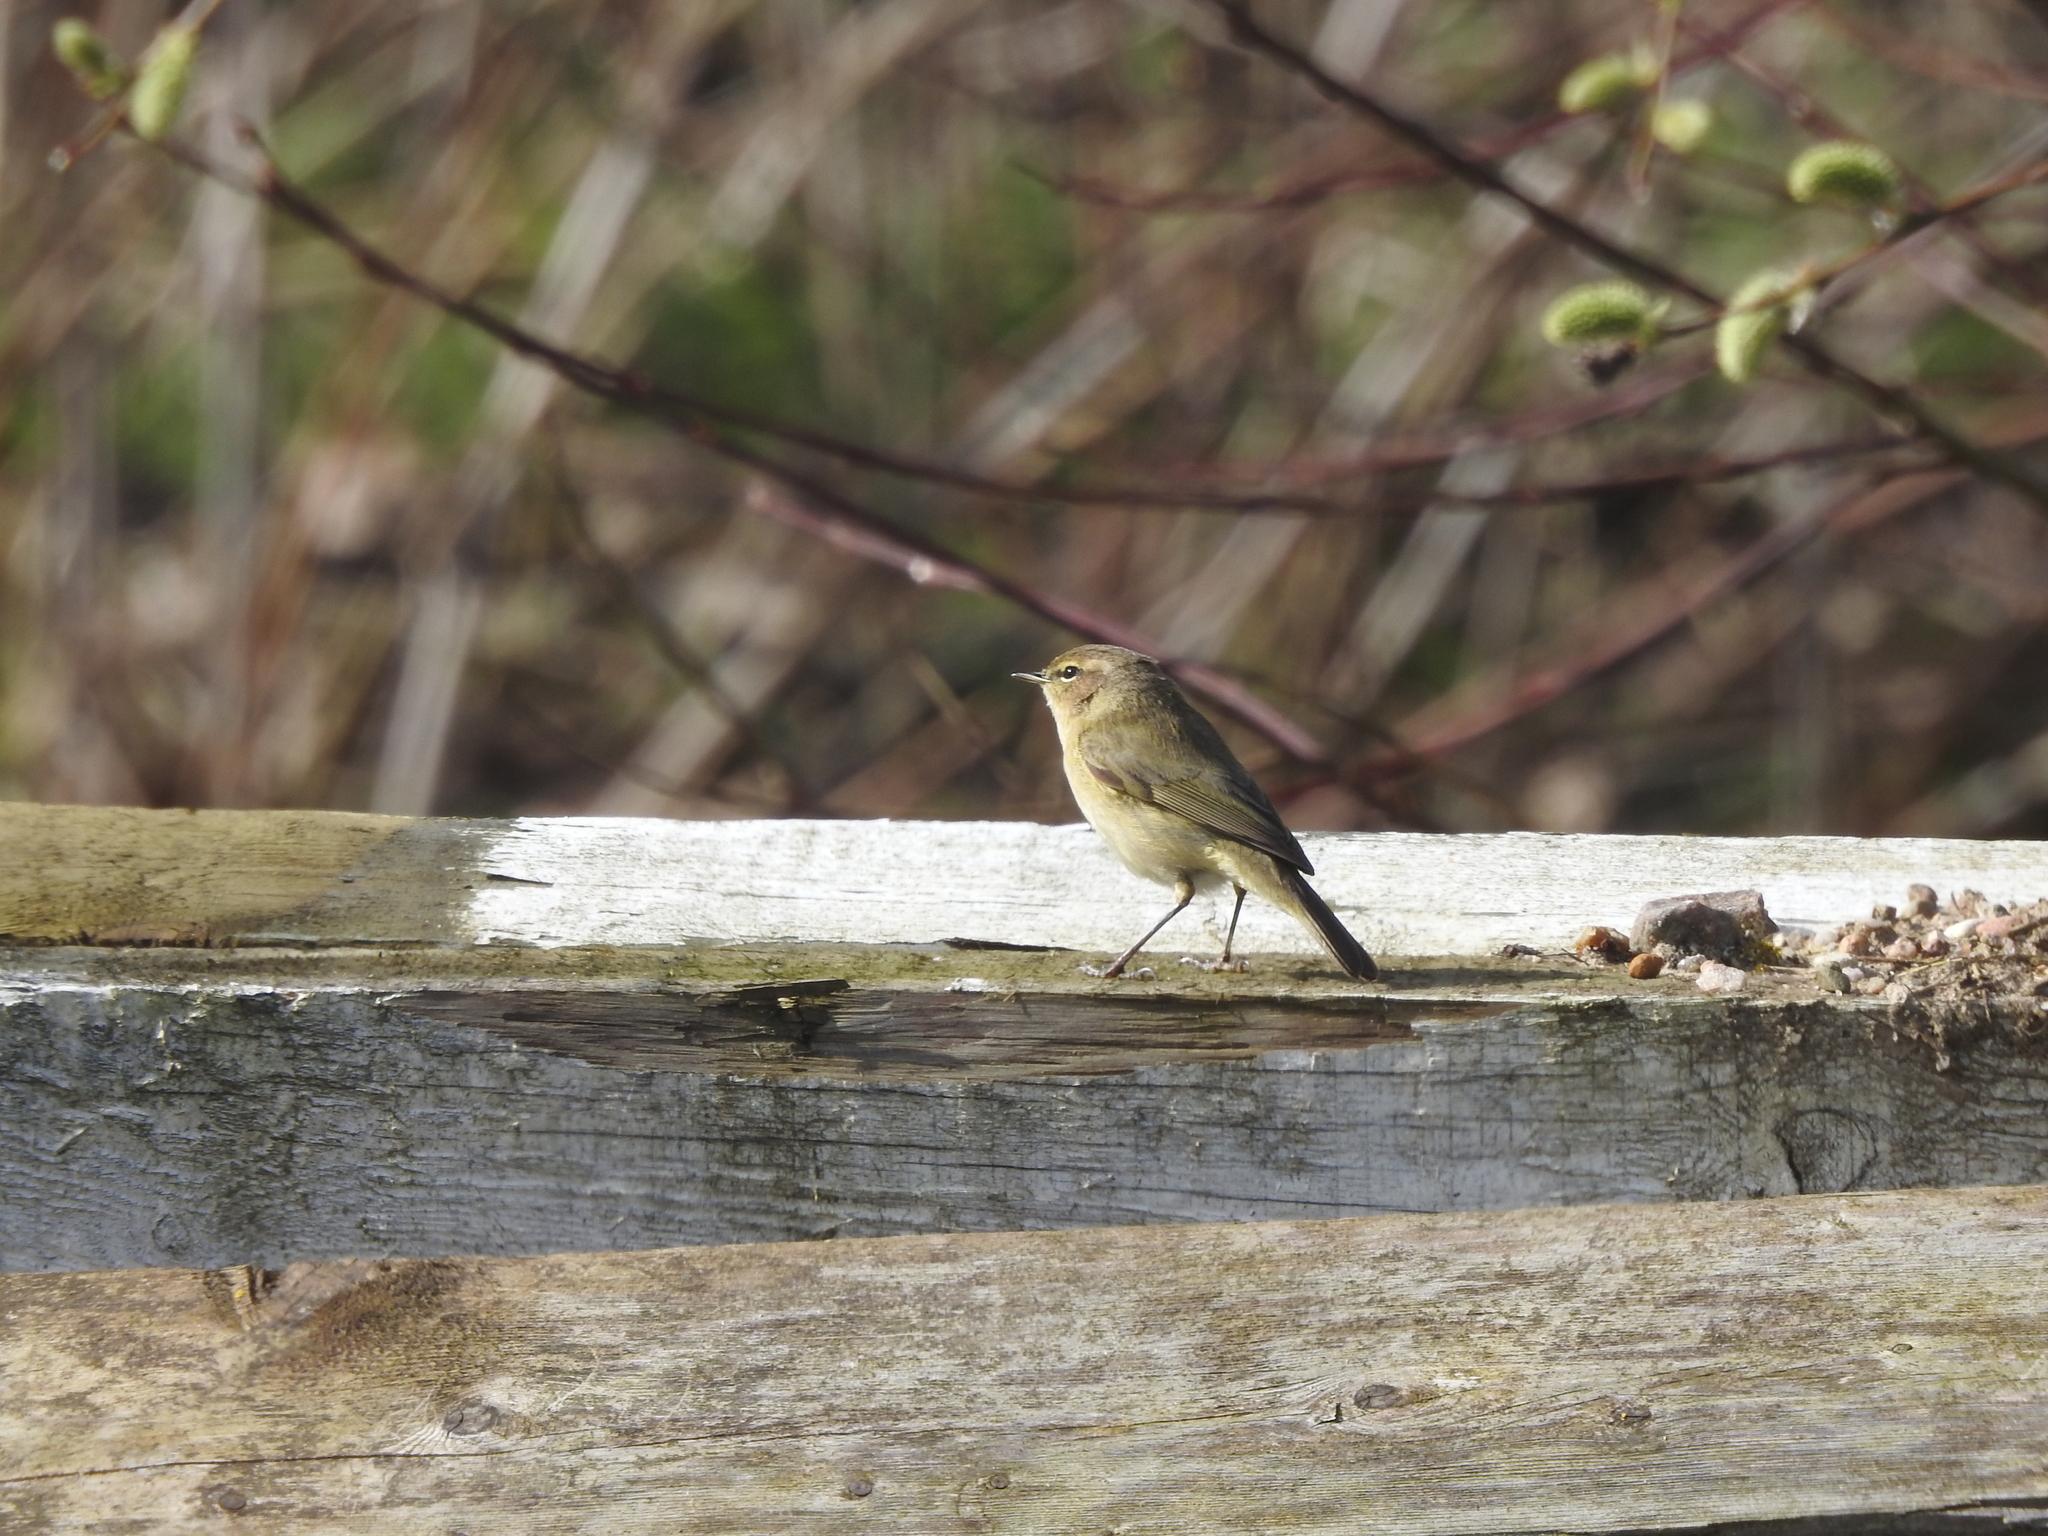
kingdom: Animalia
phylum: Chordata
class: Aves
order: Passeriformes
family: Phylloscopidae
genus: Phylloscopus
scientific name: Phylloscopus collybita
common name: Common chiffchaff
